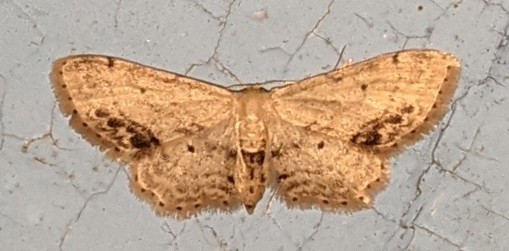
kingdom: Animalia
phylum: Arthropoda
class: Insecta
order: Lepidoptera
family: Geometridae
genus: Idaea
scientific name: Idaea dimidiata
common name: Single-dotted wave
